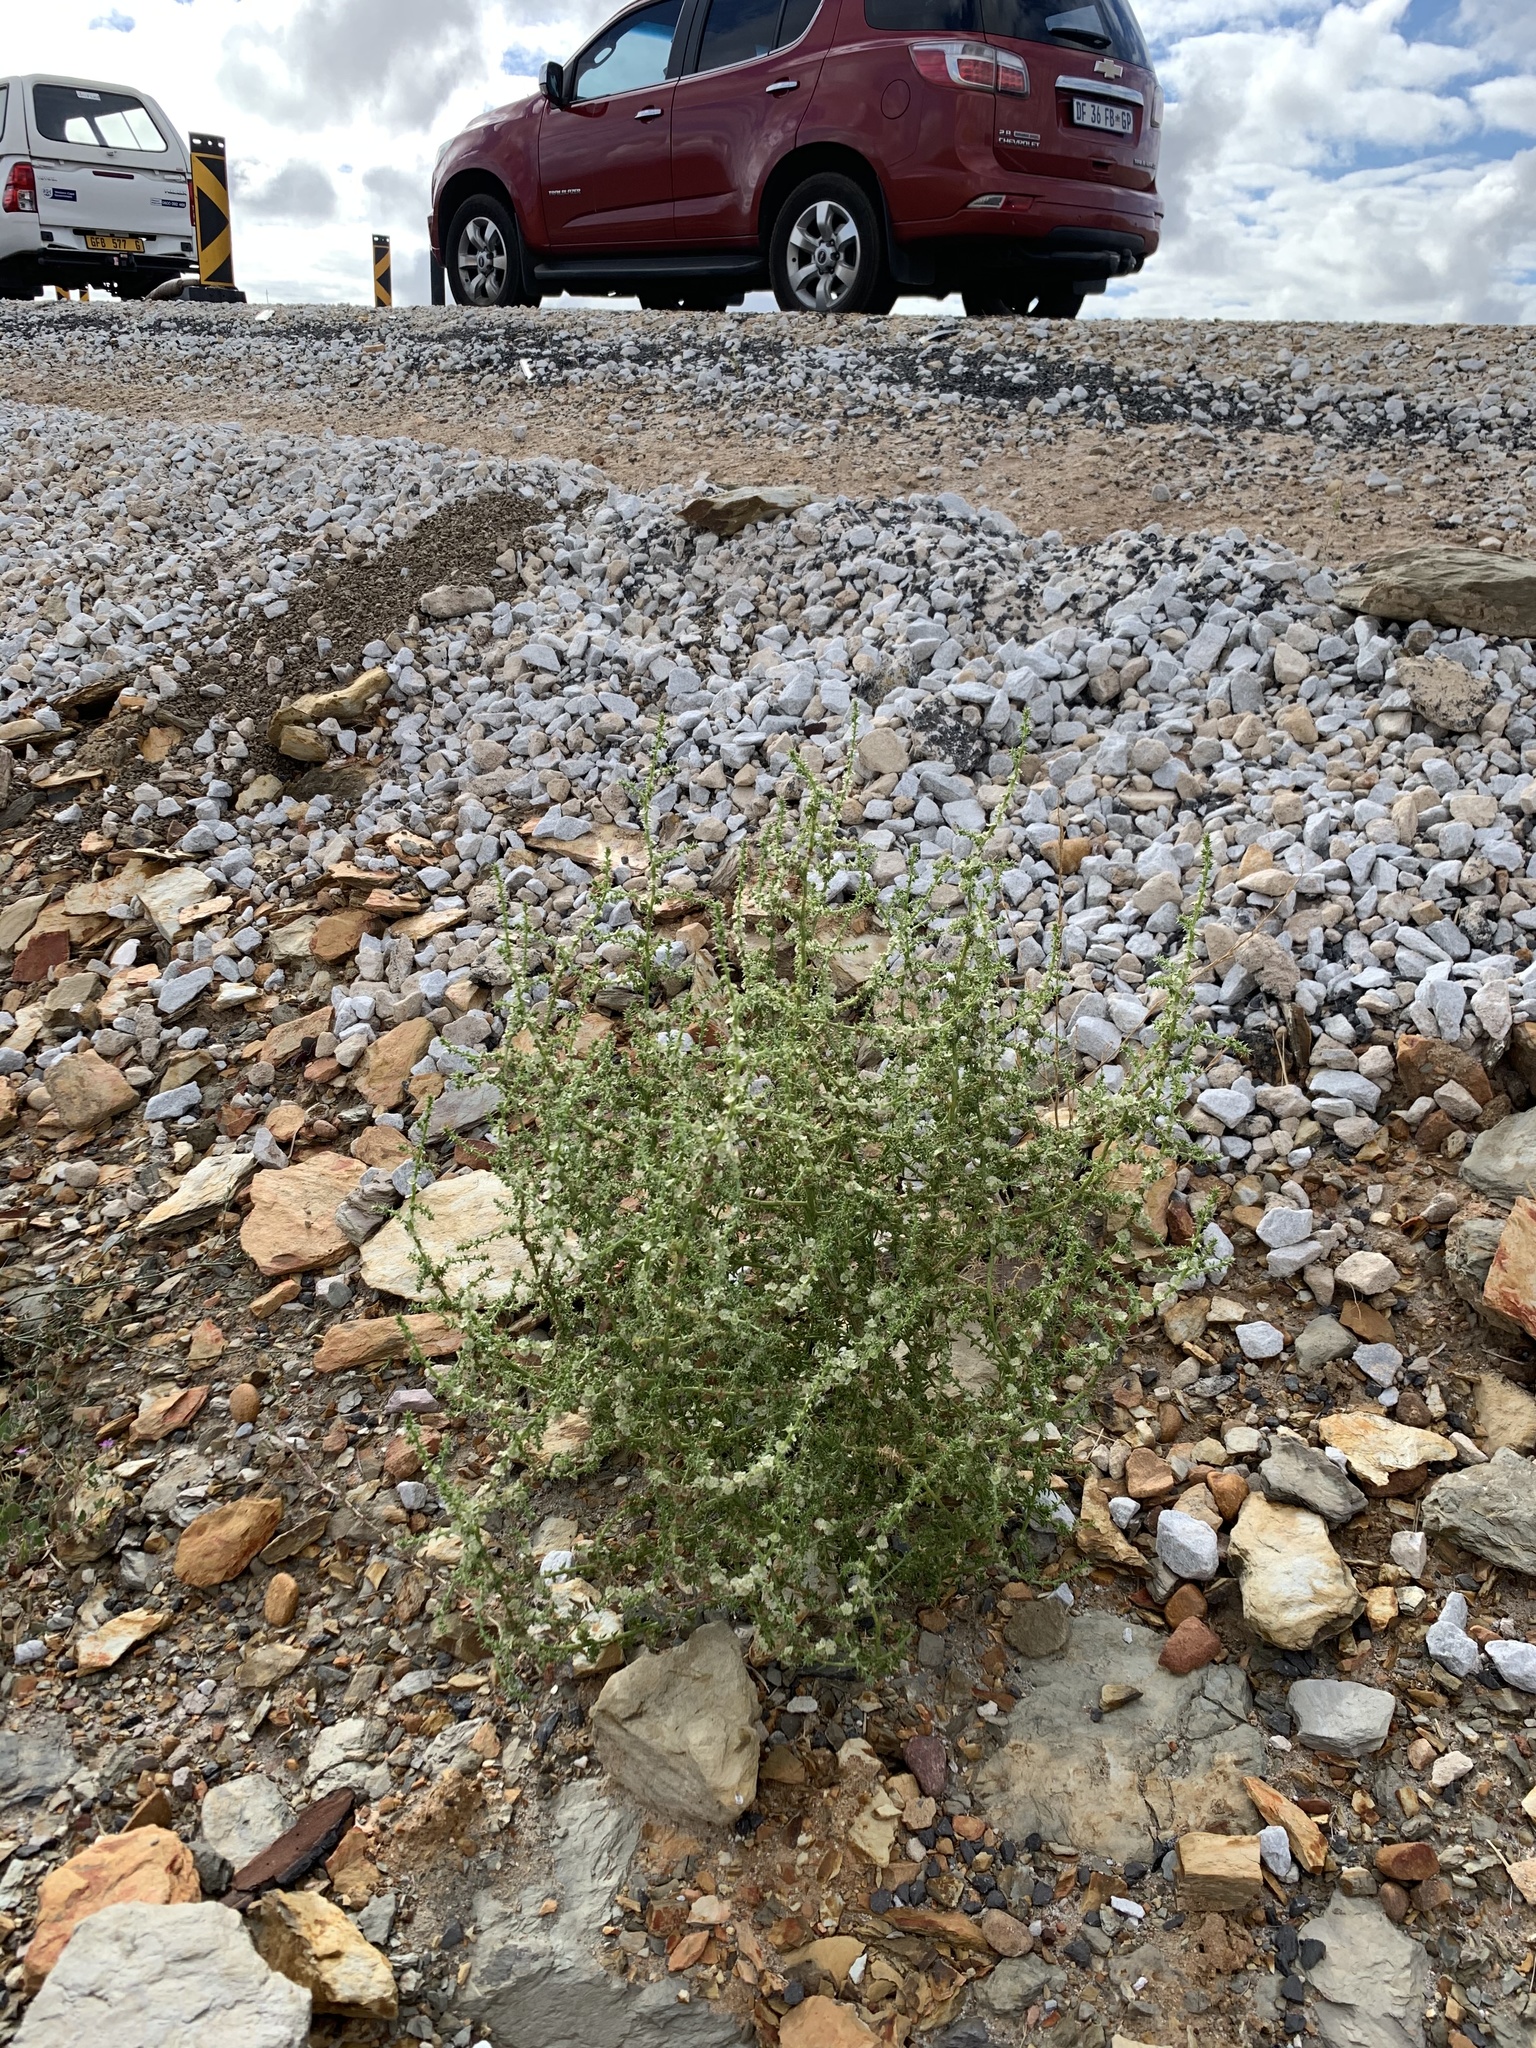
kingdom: Plantae
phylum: Tracheophyta
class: Magnoliopsida
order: Caryophyllales
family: Amaranthaceae
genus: Salsola
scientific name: Salsola kali
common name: Saltwort
